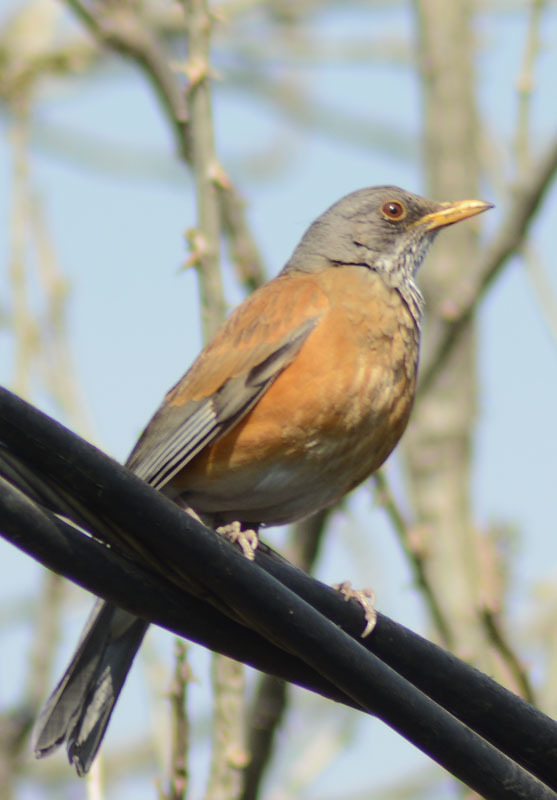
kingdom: Animalia
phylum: Chordata
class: Aves
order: Passeriformes
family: Turdidae
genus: Turdus
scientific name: Turdus rufopalliatus
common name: Rufous-backed robin
